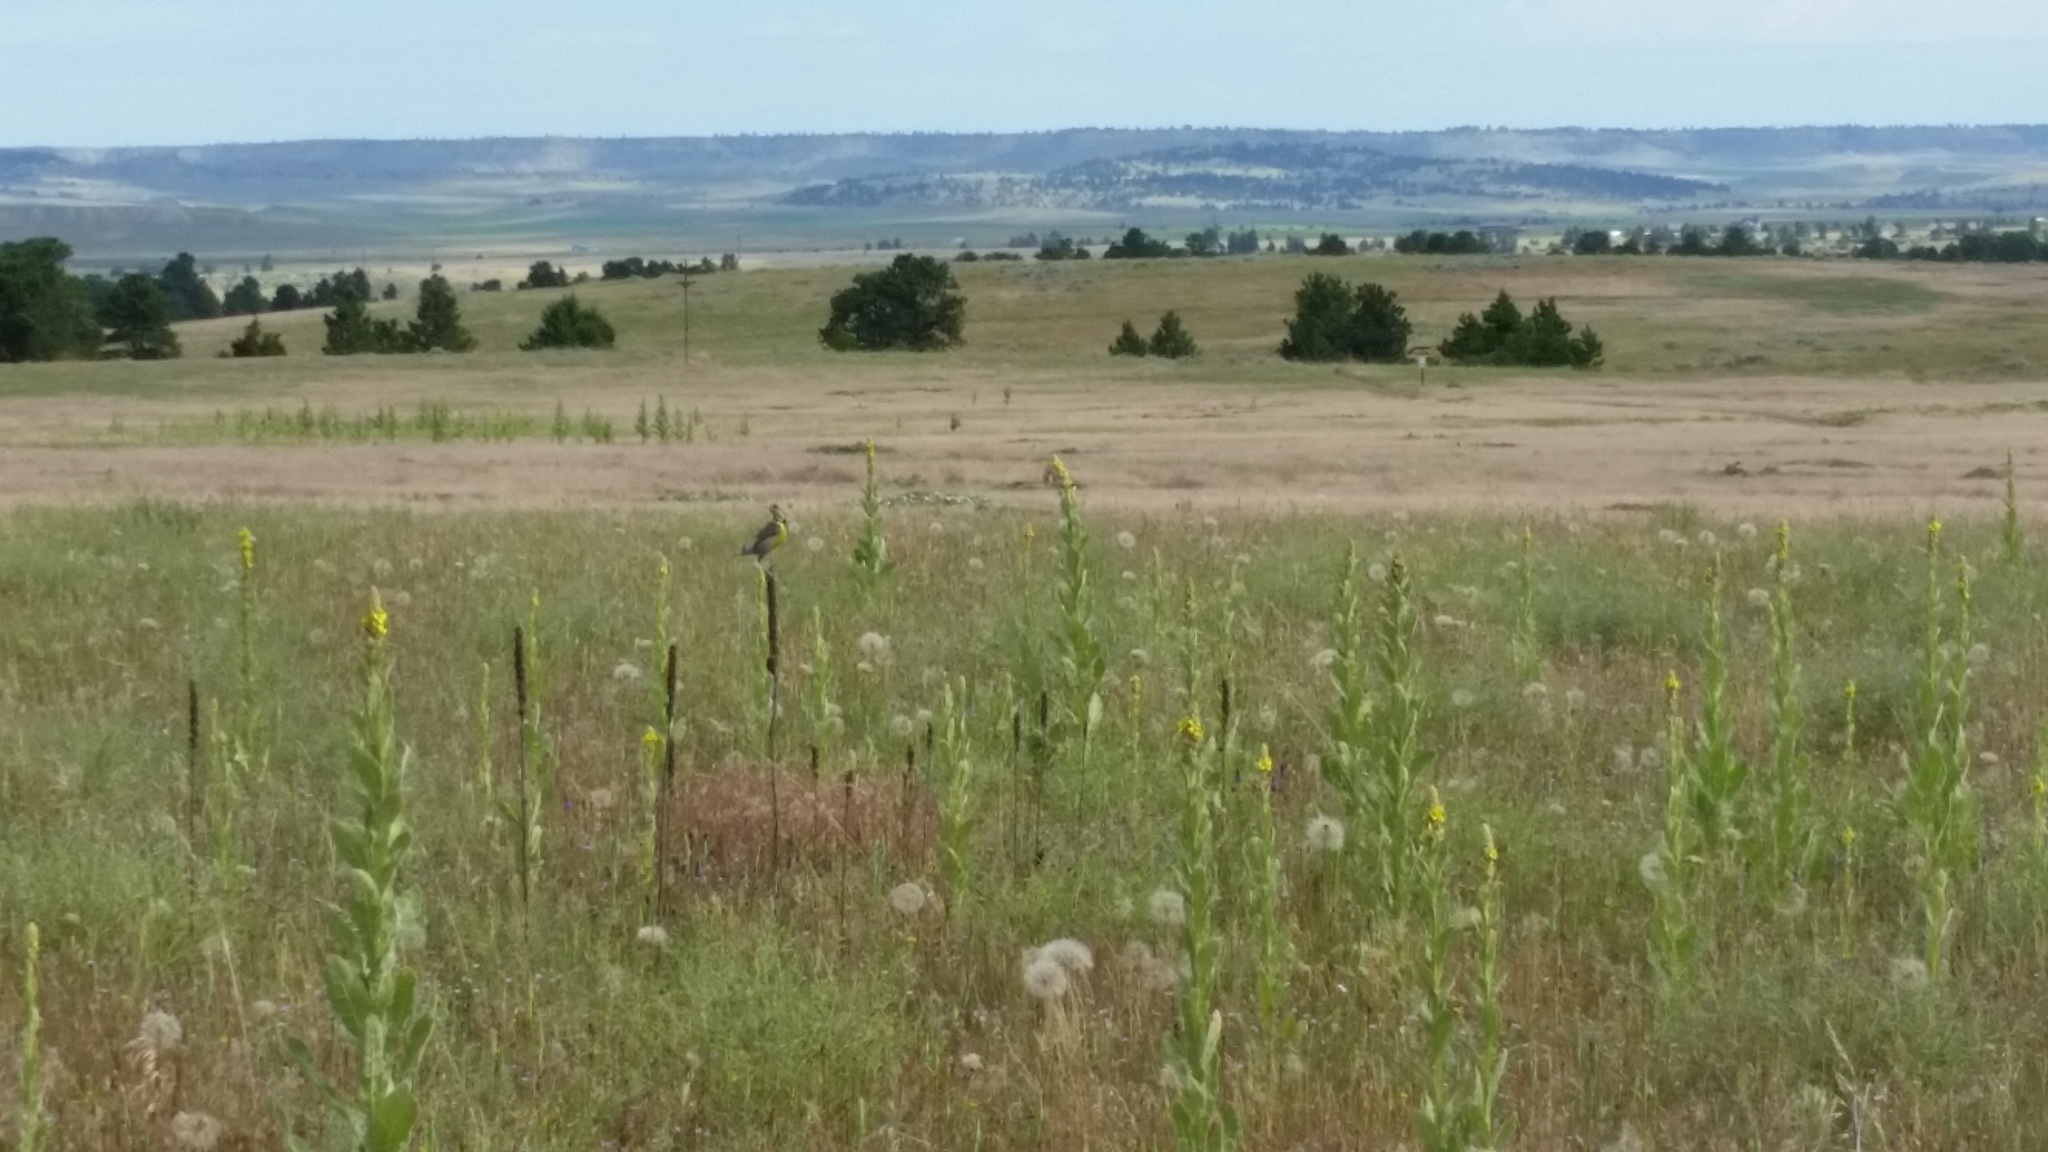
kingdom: Animalia
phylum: Chordata
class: Aves
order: Passeriformes
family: Icteridae
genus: Sturnella
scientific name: Sturnella neglecta
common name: Western meadowlark
